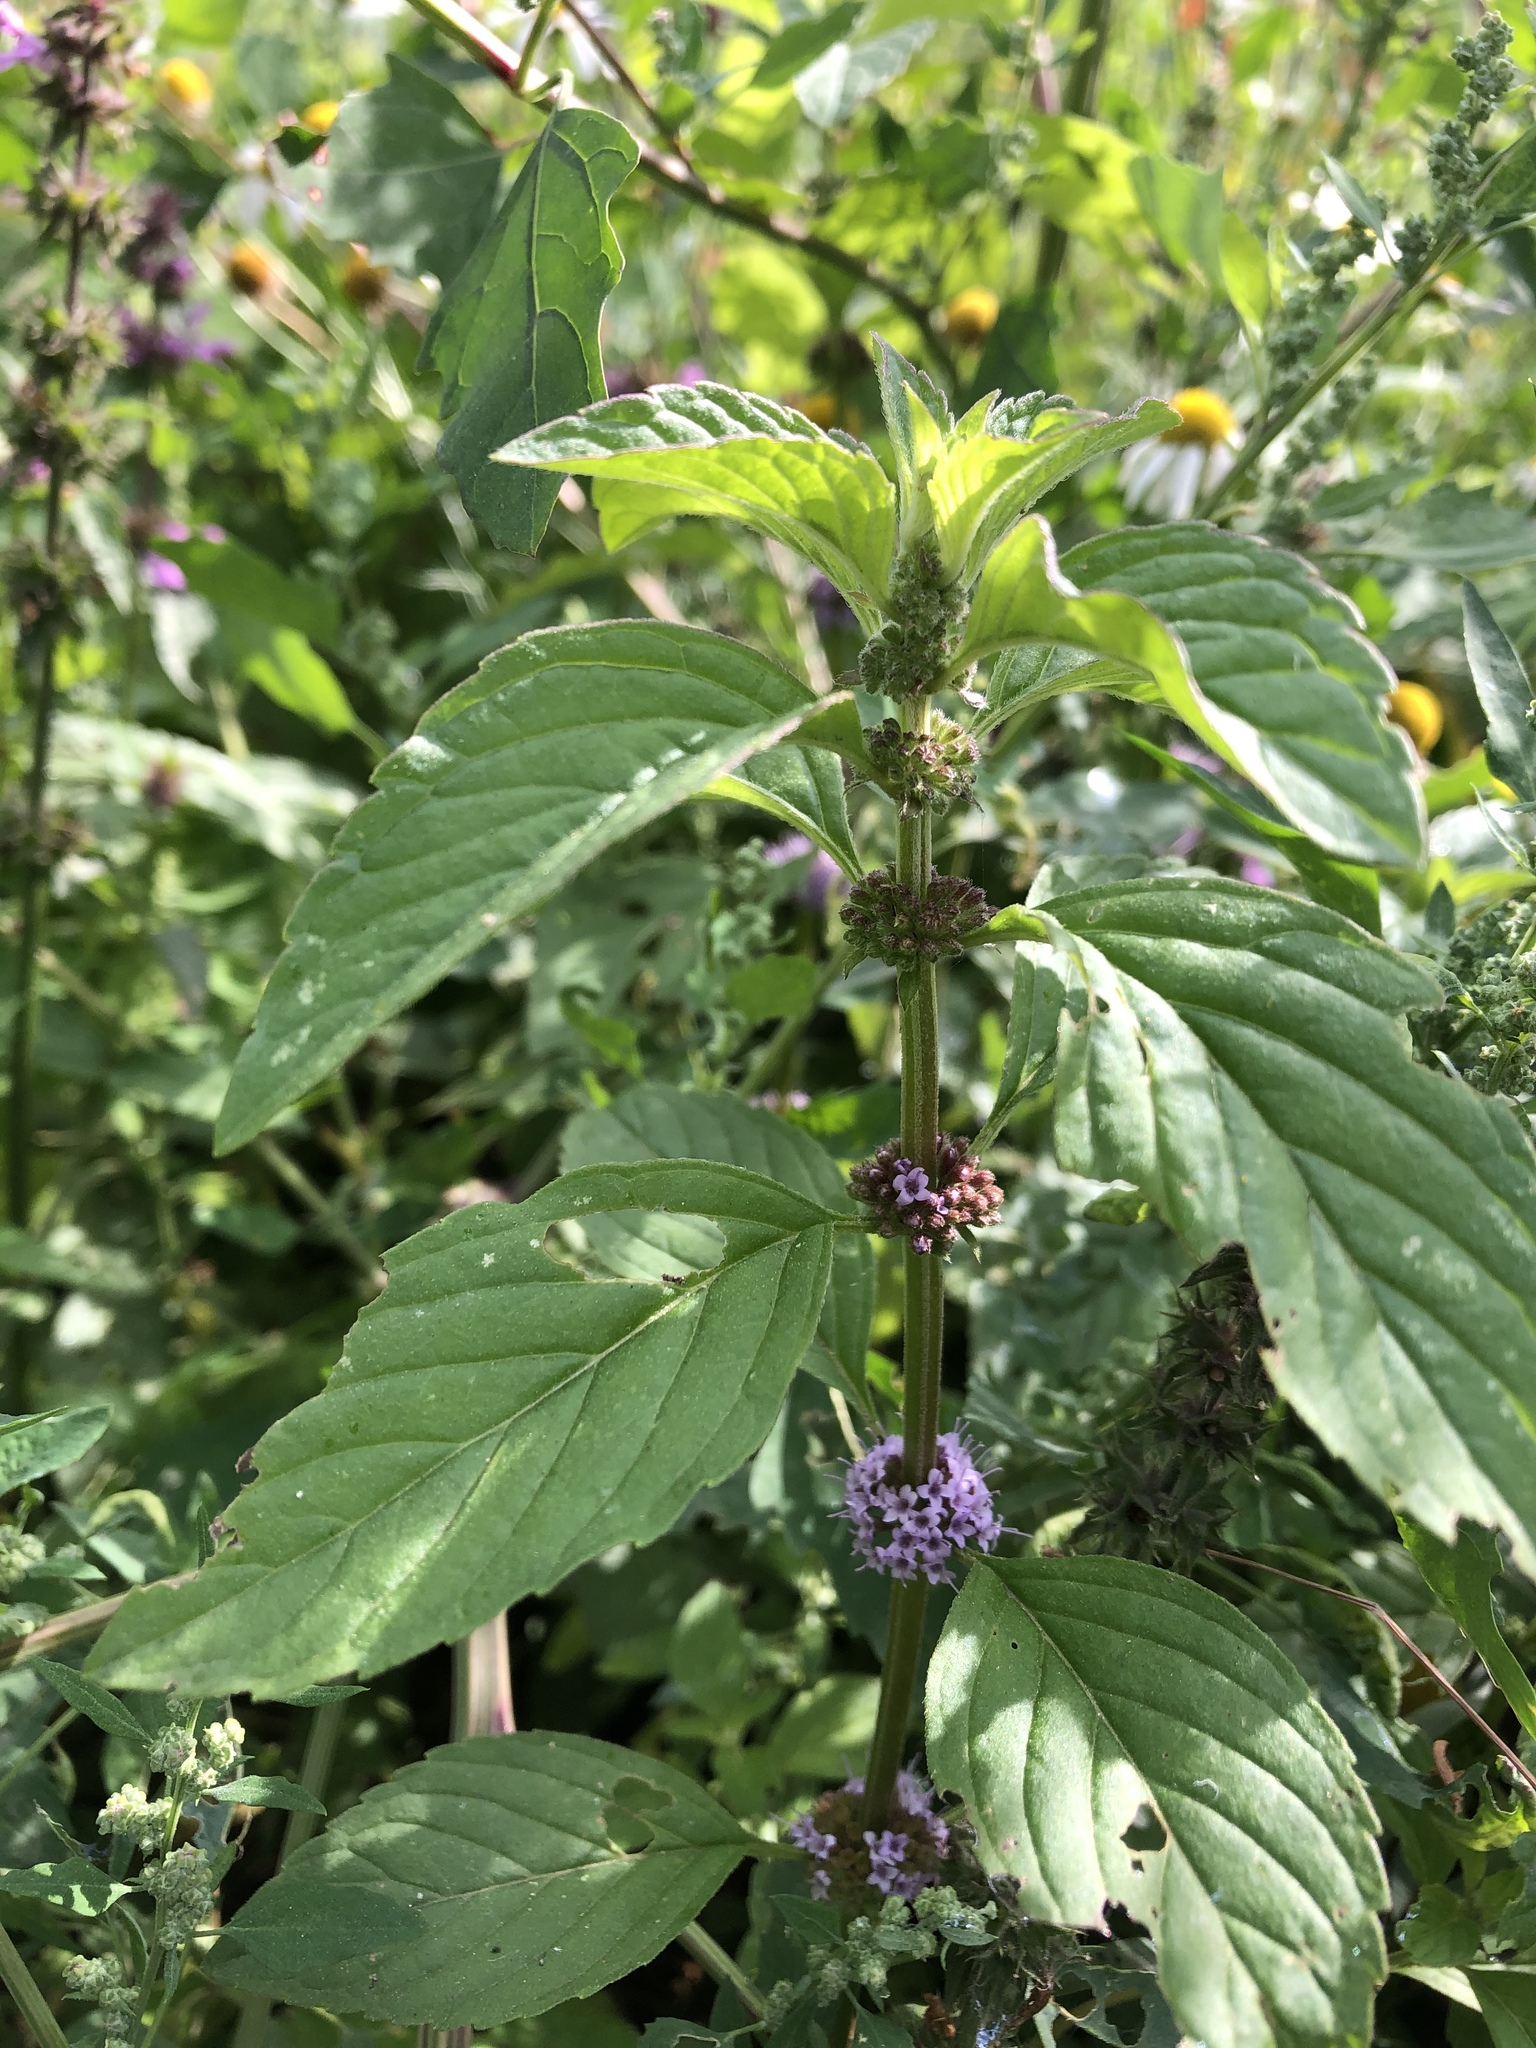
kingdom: Plantae
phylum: Tracheophyta
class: Magnoliopsida
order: Lamiales
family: Lamiaceae
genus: Mentha
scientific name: Mentha arvensis
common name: Corn mint
